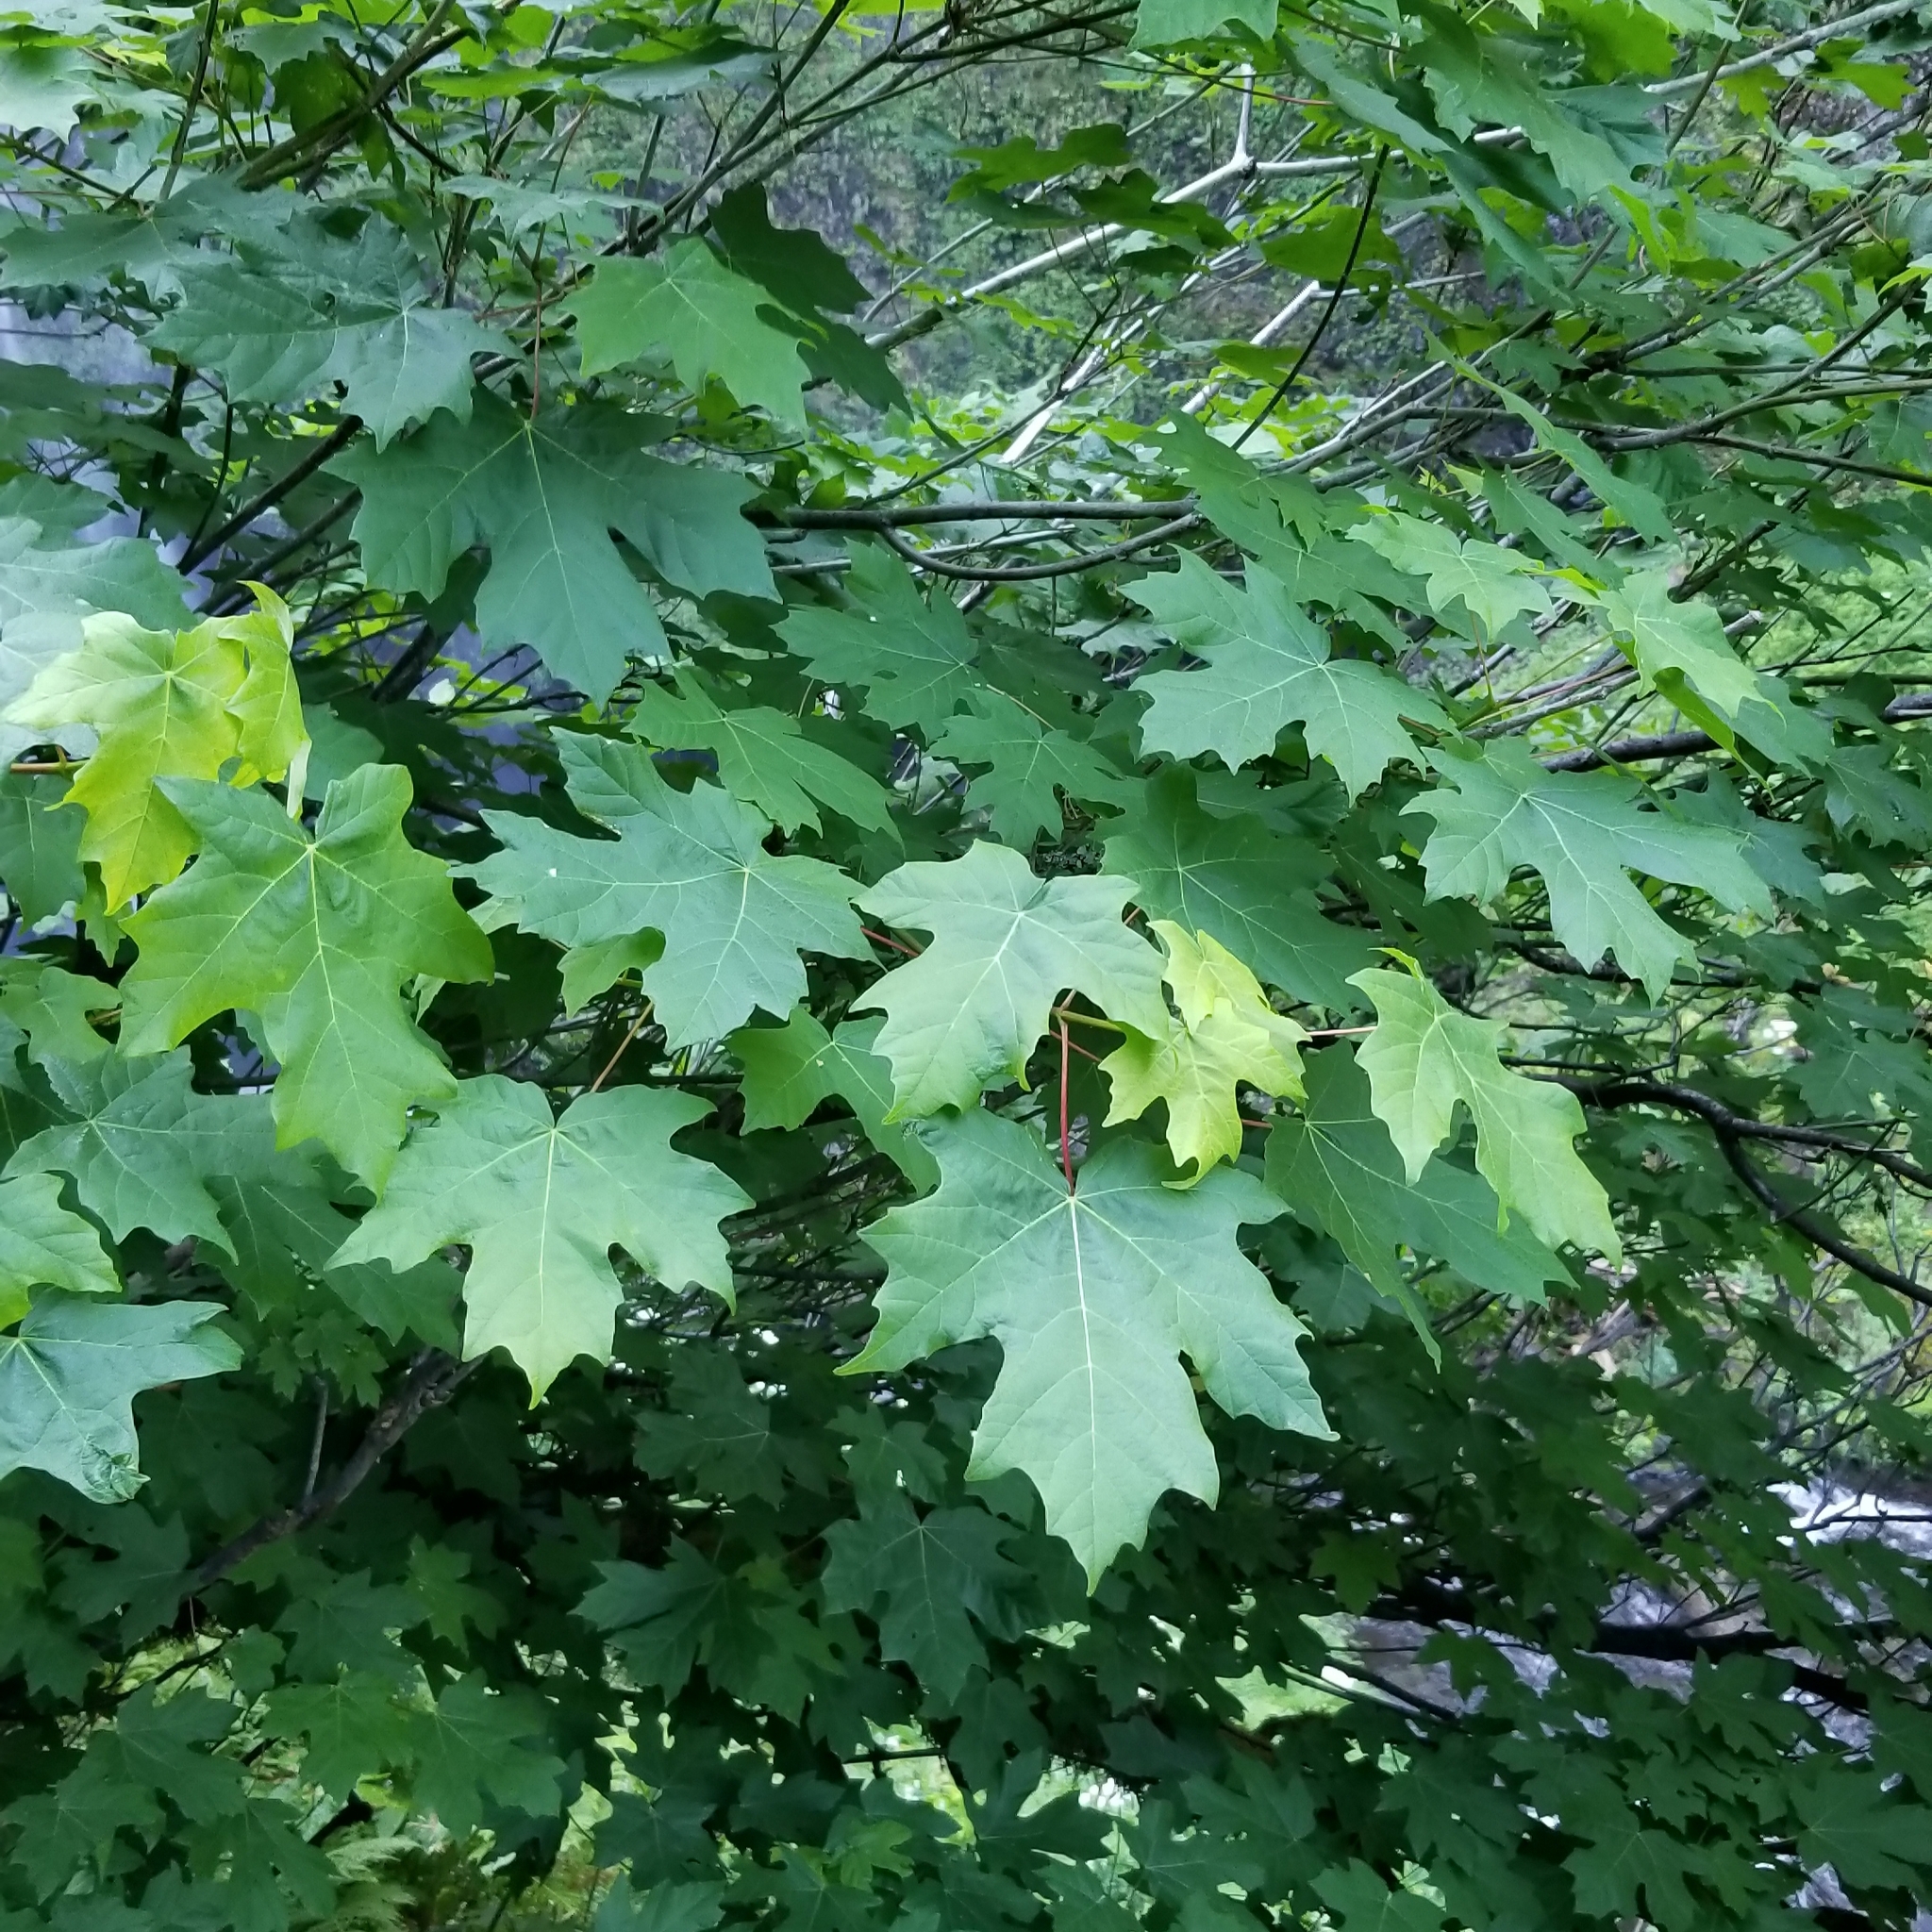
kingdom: Plantae
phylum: Tracheophyta
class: Magnoliopsida
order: Sapindales
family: Sapindaceae
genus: Acer
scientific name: Acer macrophyllum
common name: Oregon maple
